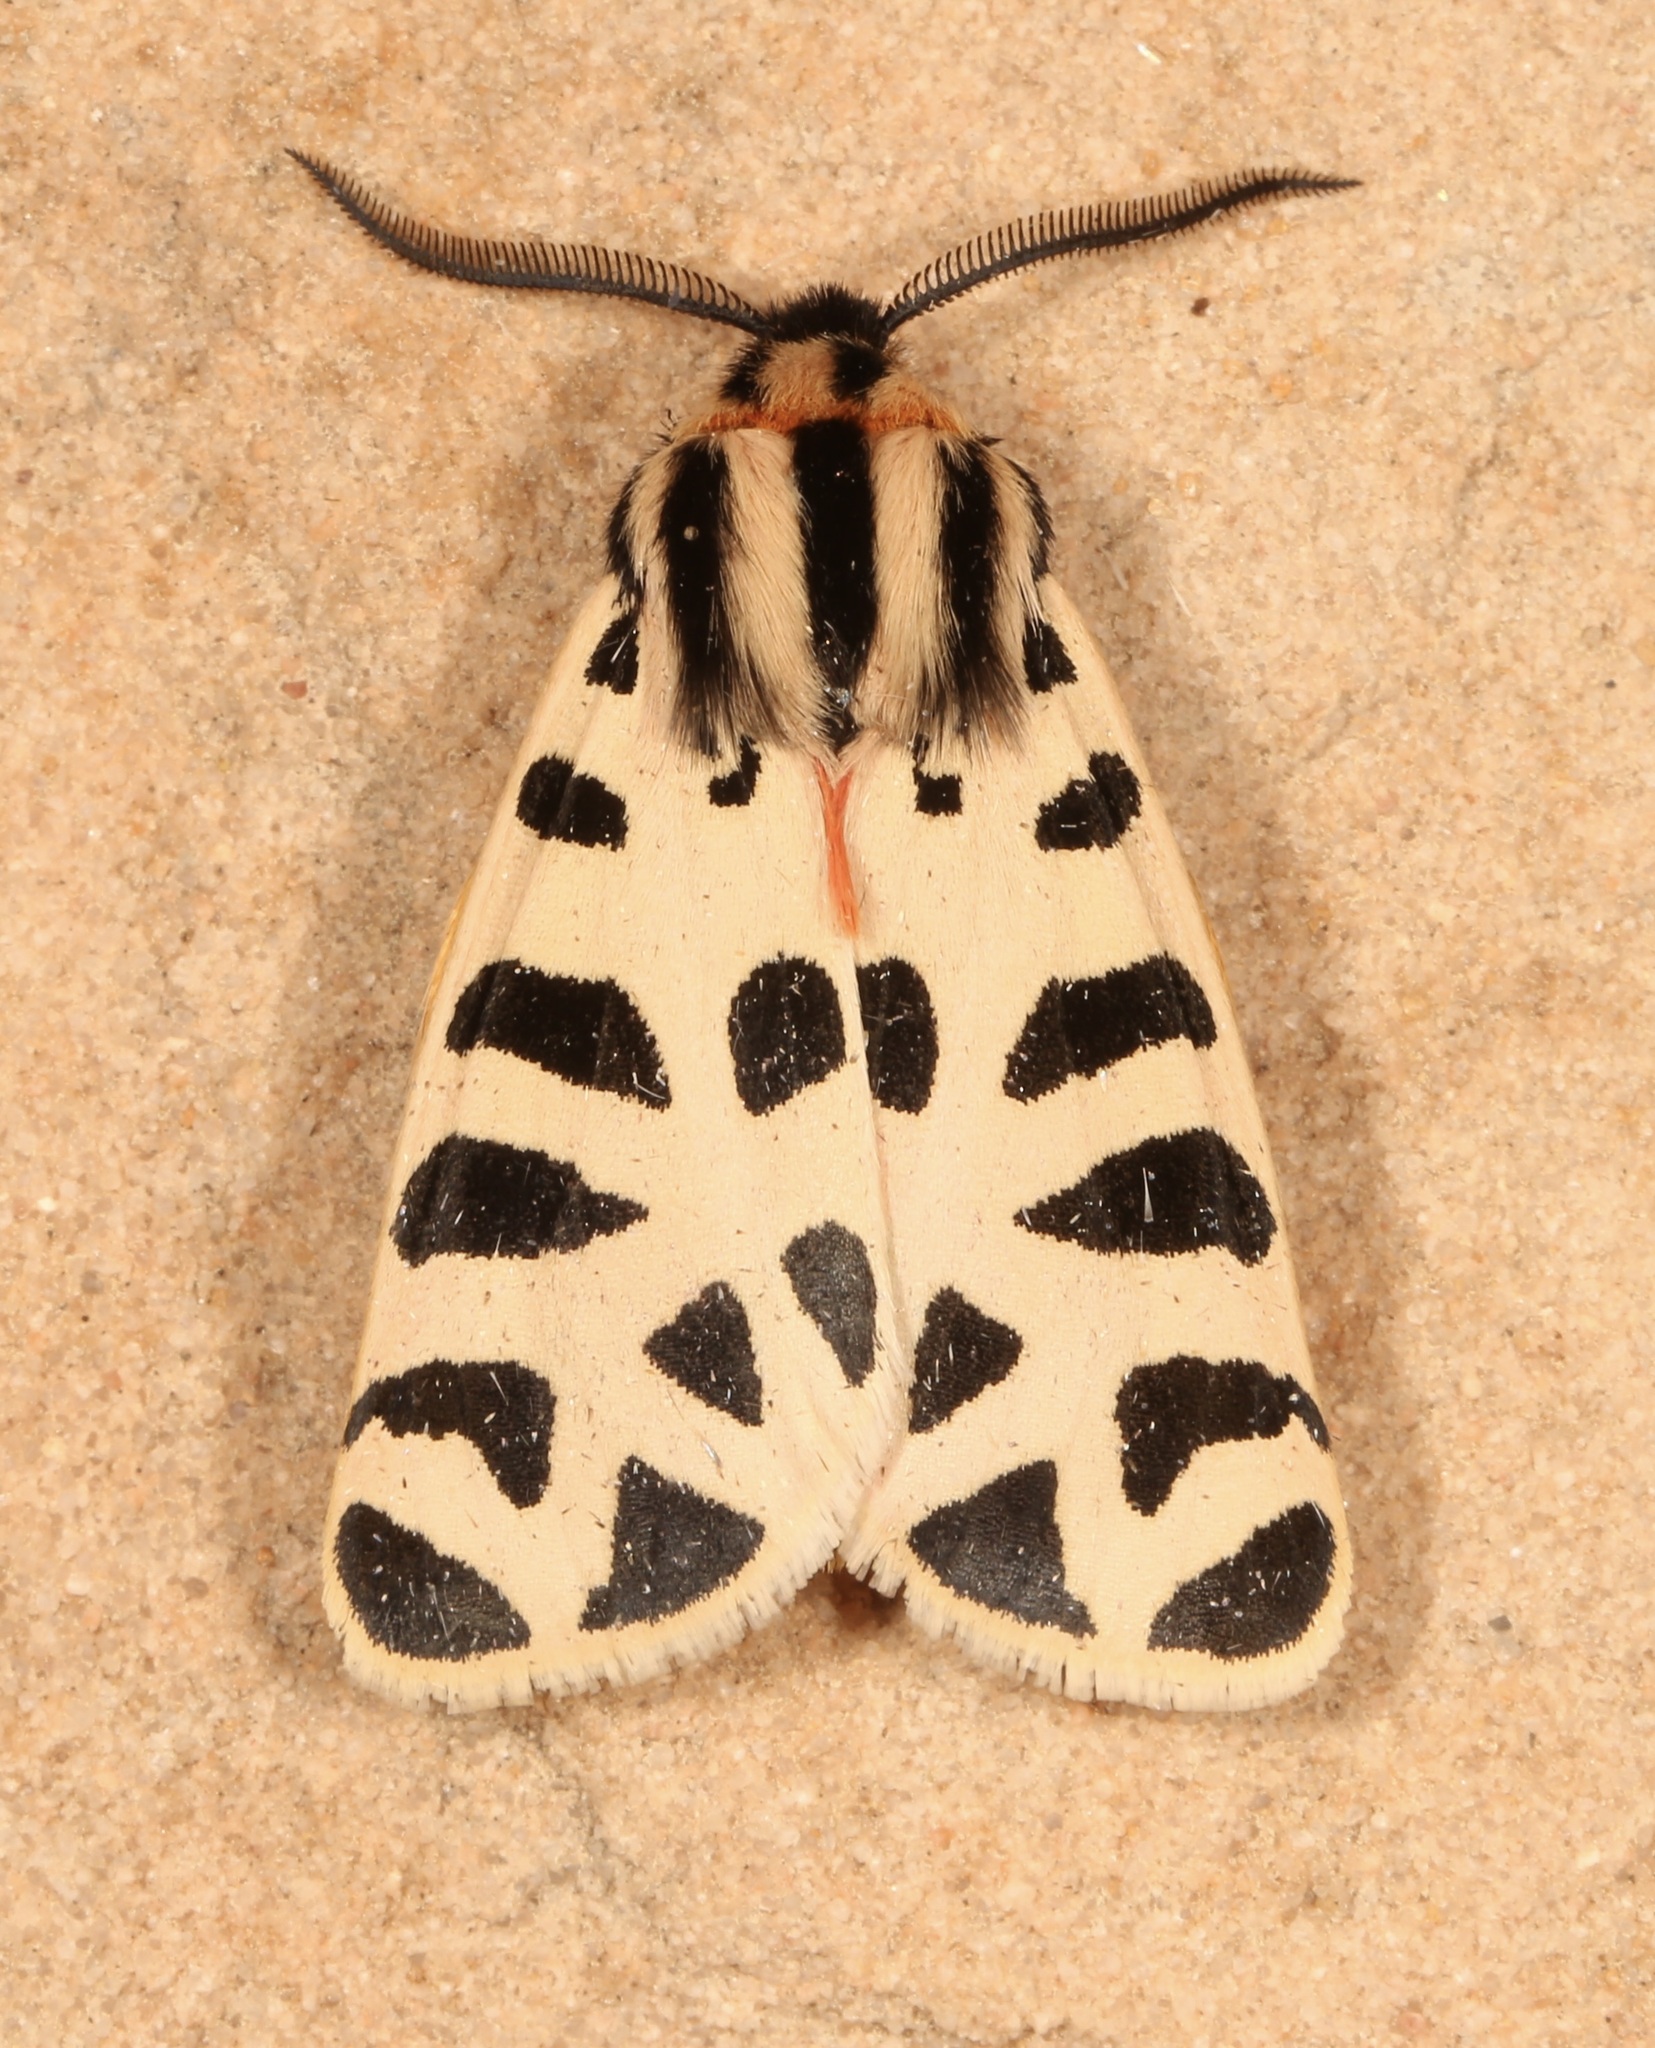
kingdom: Animalia
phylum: Arthropoda
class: Insecta
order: Lepidoptera
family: Erebidae
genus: Apantesis
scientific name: Apantesis incorrupta
